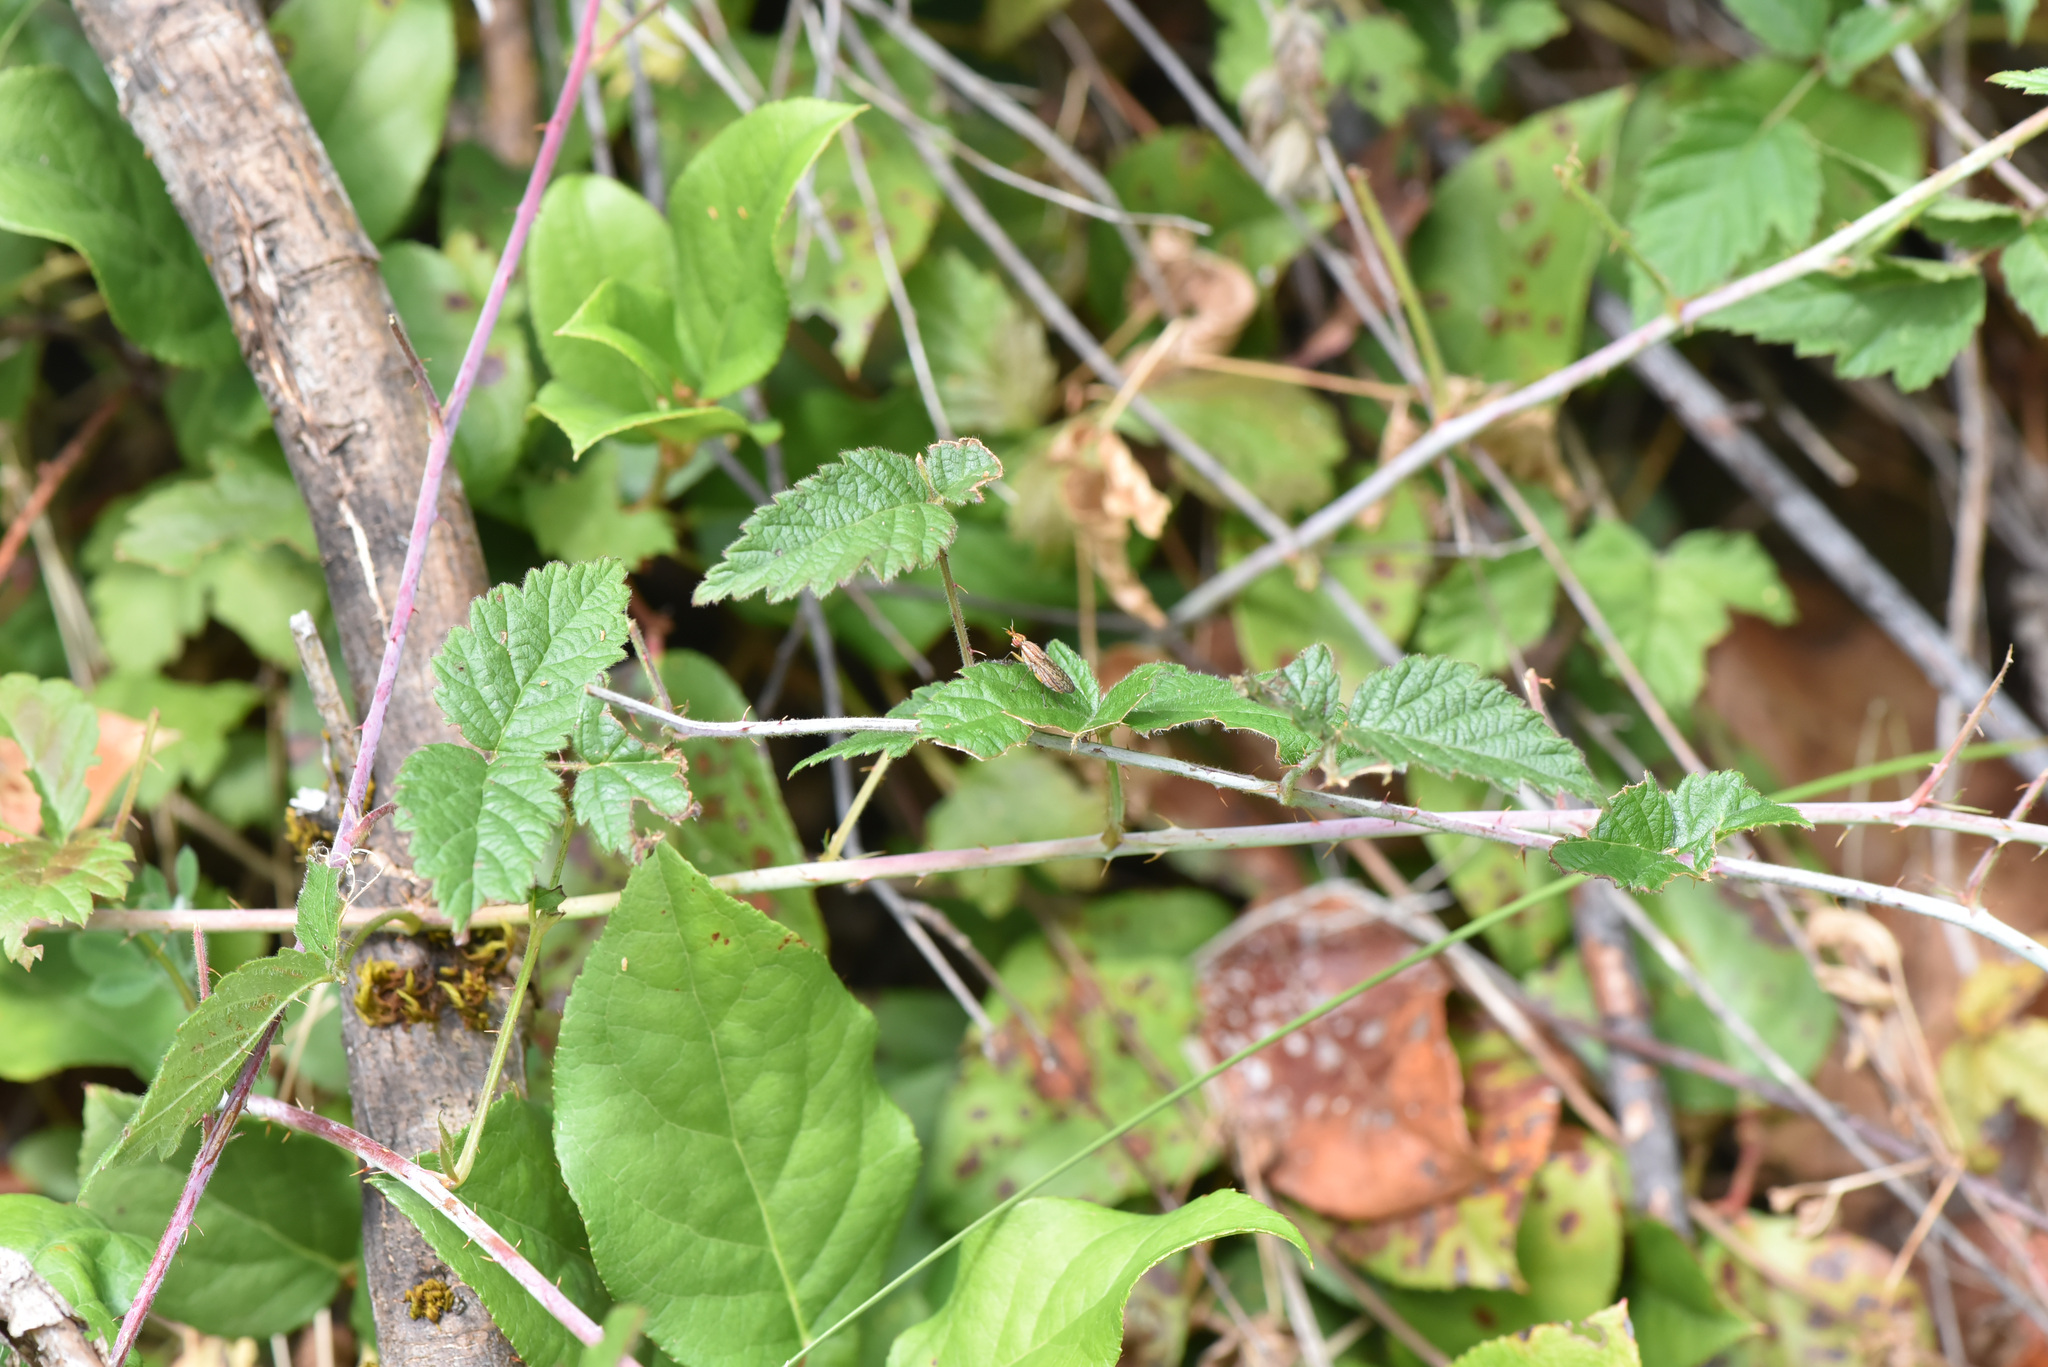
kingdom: Plantae
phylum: Tracheophyta
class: Magnoliopsida
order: Rosales
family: Rosaceae
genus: Rubus
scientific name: Rubus ursinus
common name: Pacific blackberry
